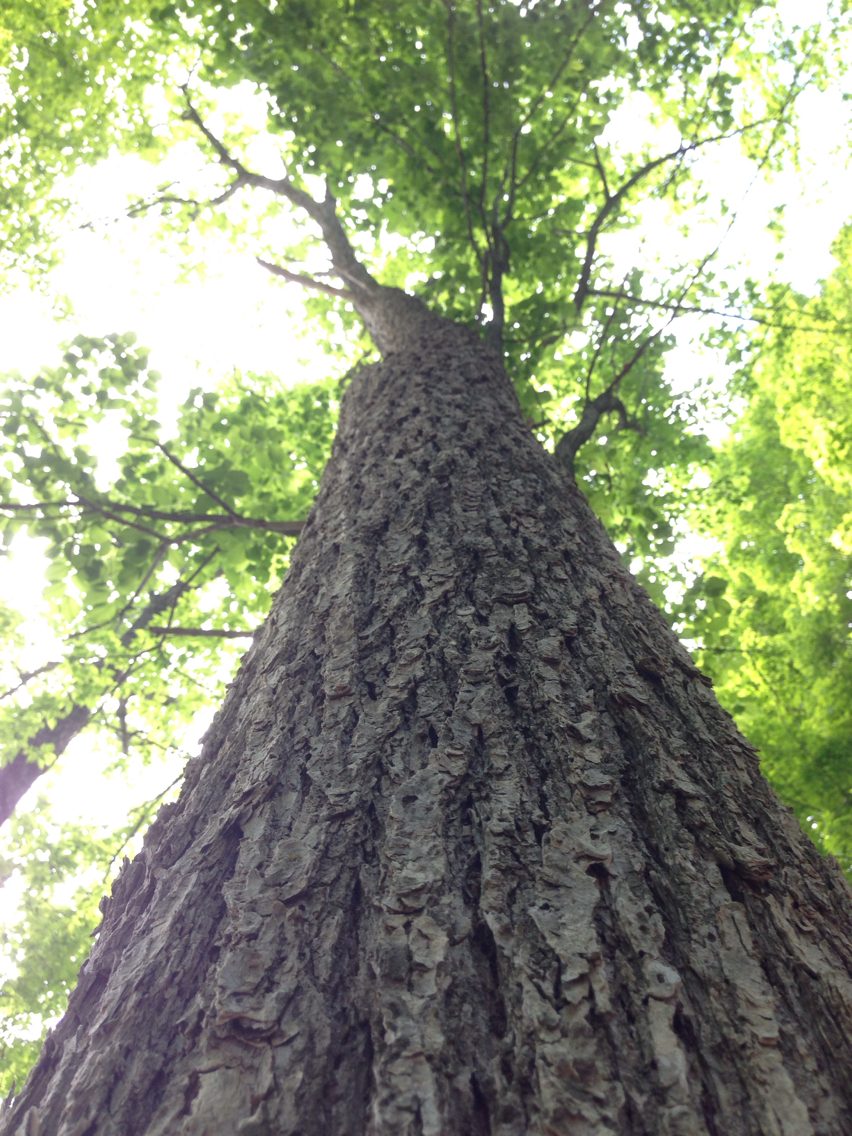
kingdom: Plantae
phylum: Tracheophyta
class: Magnoliopsida
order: Rosales
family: Ulmaceae
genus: Ulmus
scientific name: Ulmus americana
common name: American elm
